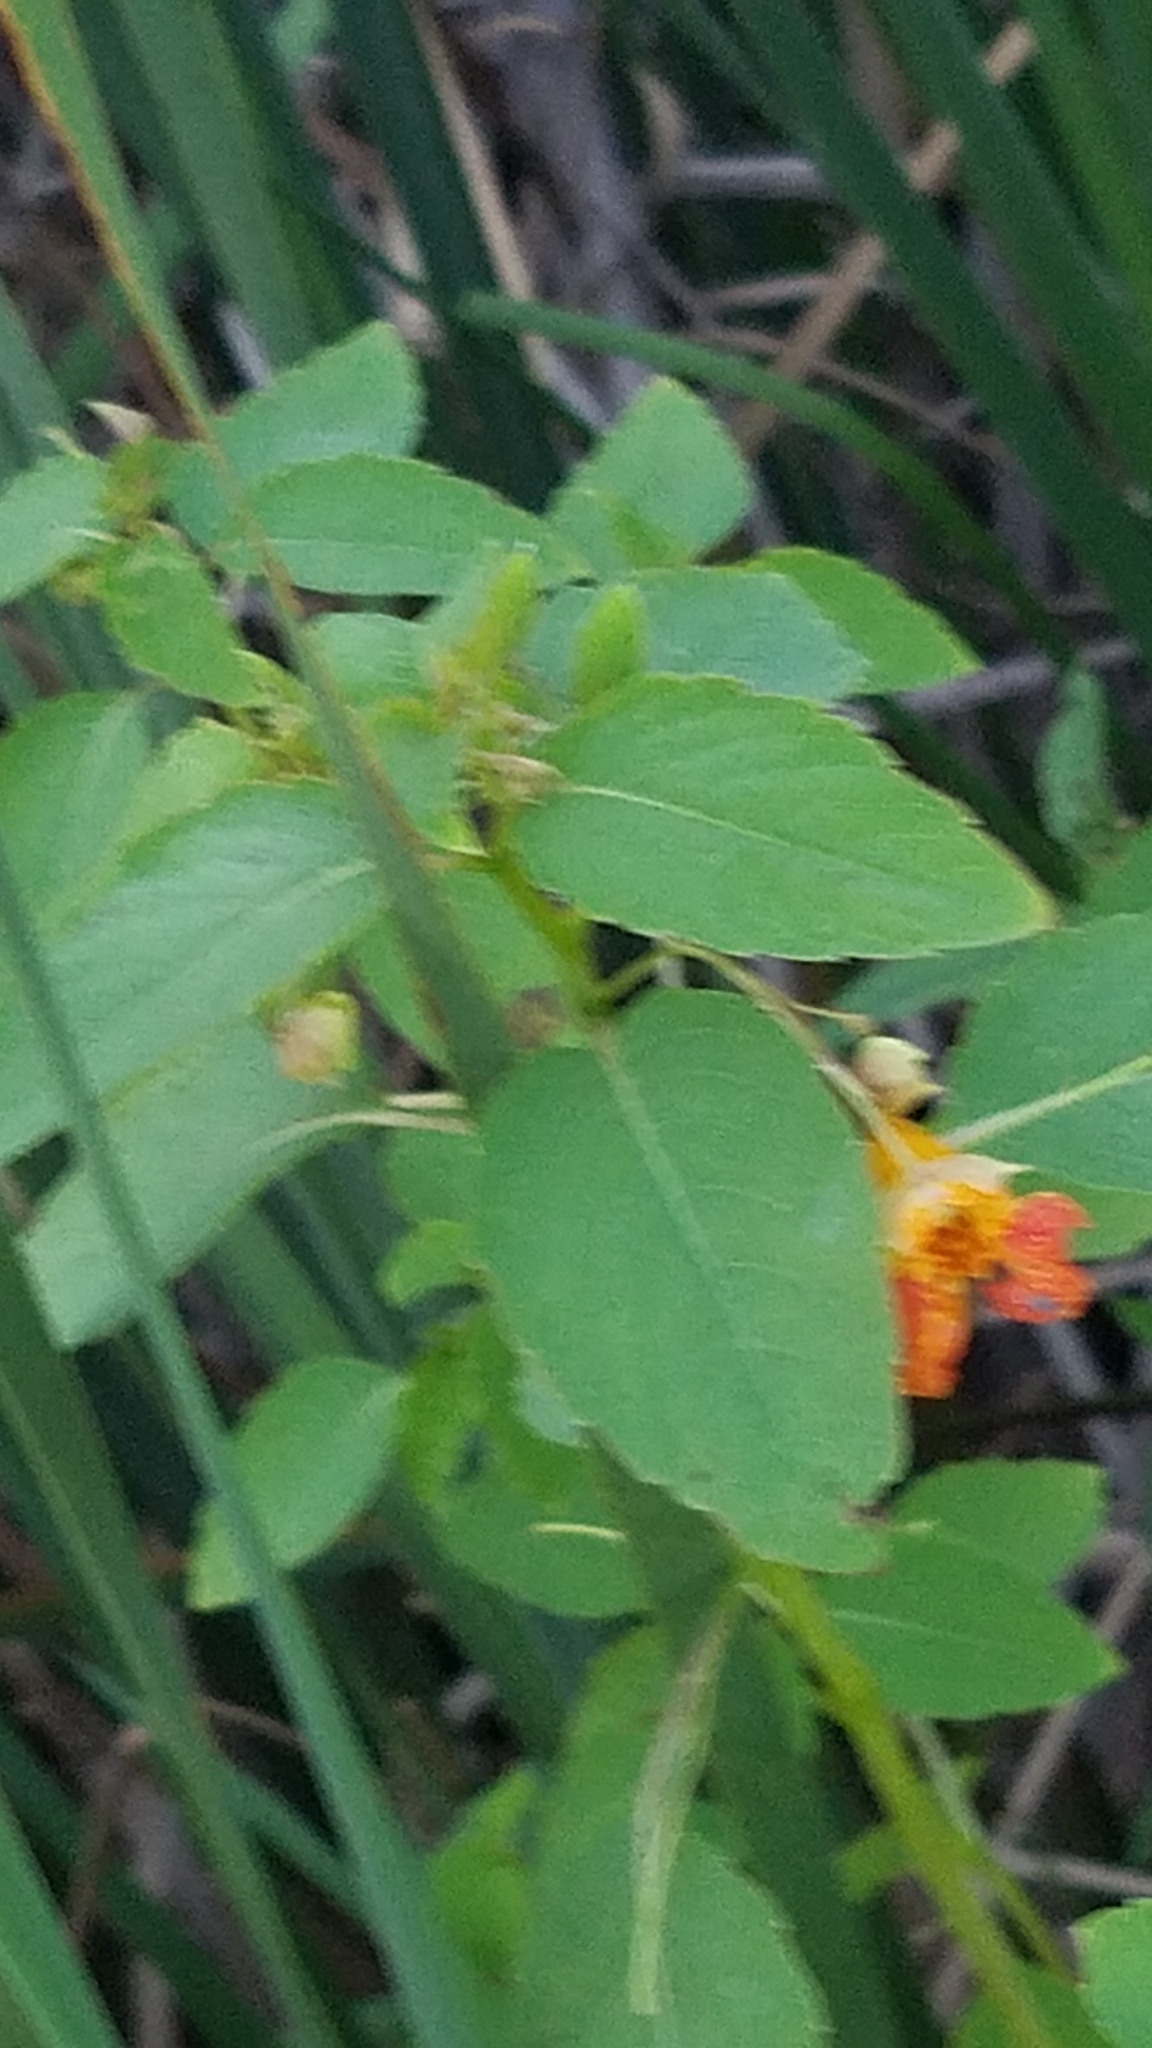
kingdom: Plantae
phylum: Tracheophyta
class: Magnoliopsida
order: Ericales
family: Balsaminaceae
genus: Impatiens
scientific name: Impatiens capensis
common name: Orange balsam
